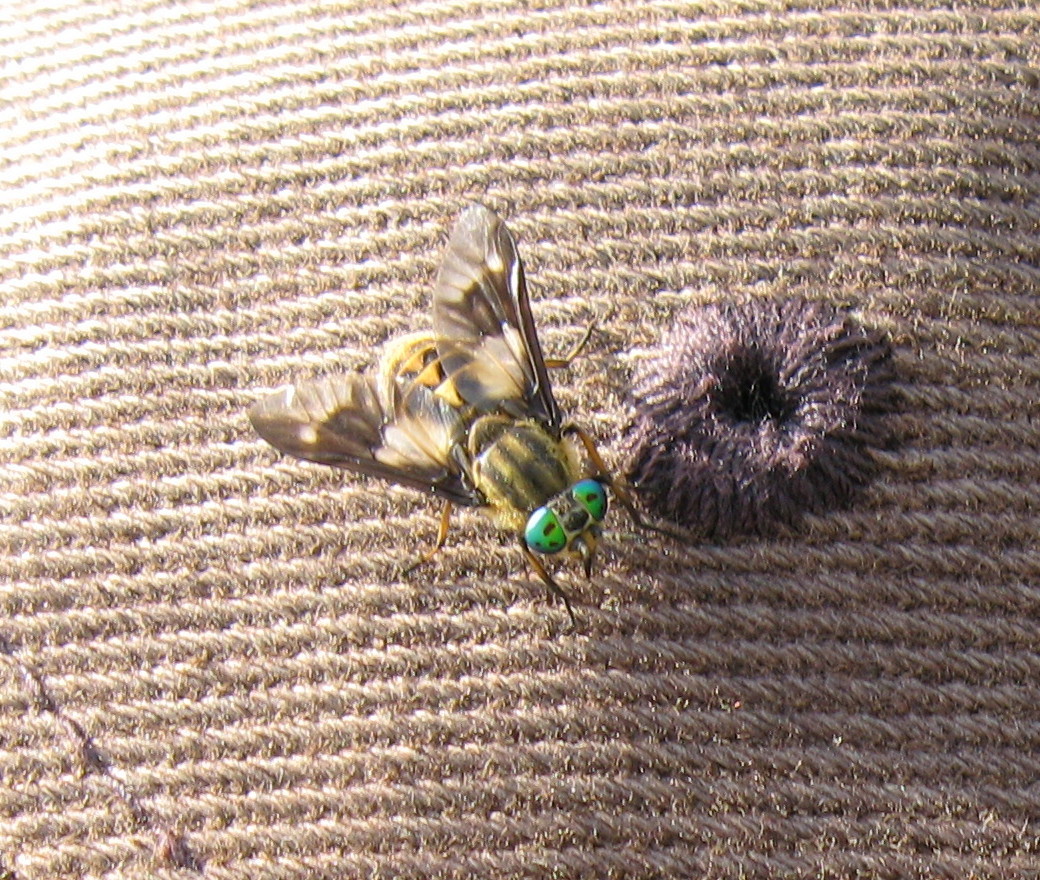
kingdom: Animalia
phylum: Arthropoda
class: Insecta
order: Diptera
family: Tabanidae
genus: Chrysops
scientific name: Chrysops relictus
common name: Twin-lobed deerfly
